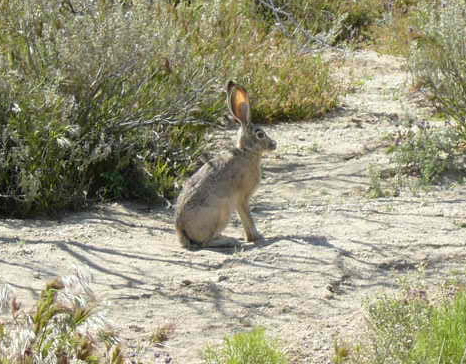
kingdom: Animalia
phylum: Chordata
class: Mammalia
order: Lagomorpha
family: Leporidae
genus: Lepus
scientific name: Lepus californicus
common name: Black-tailed jackrabbit
